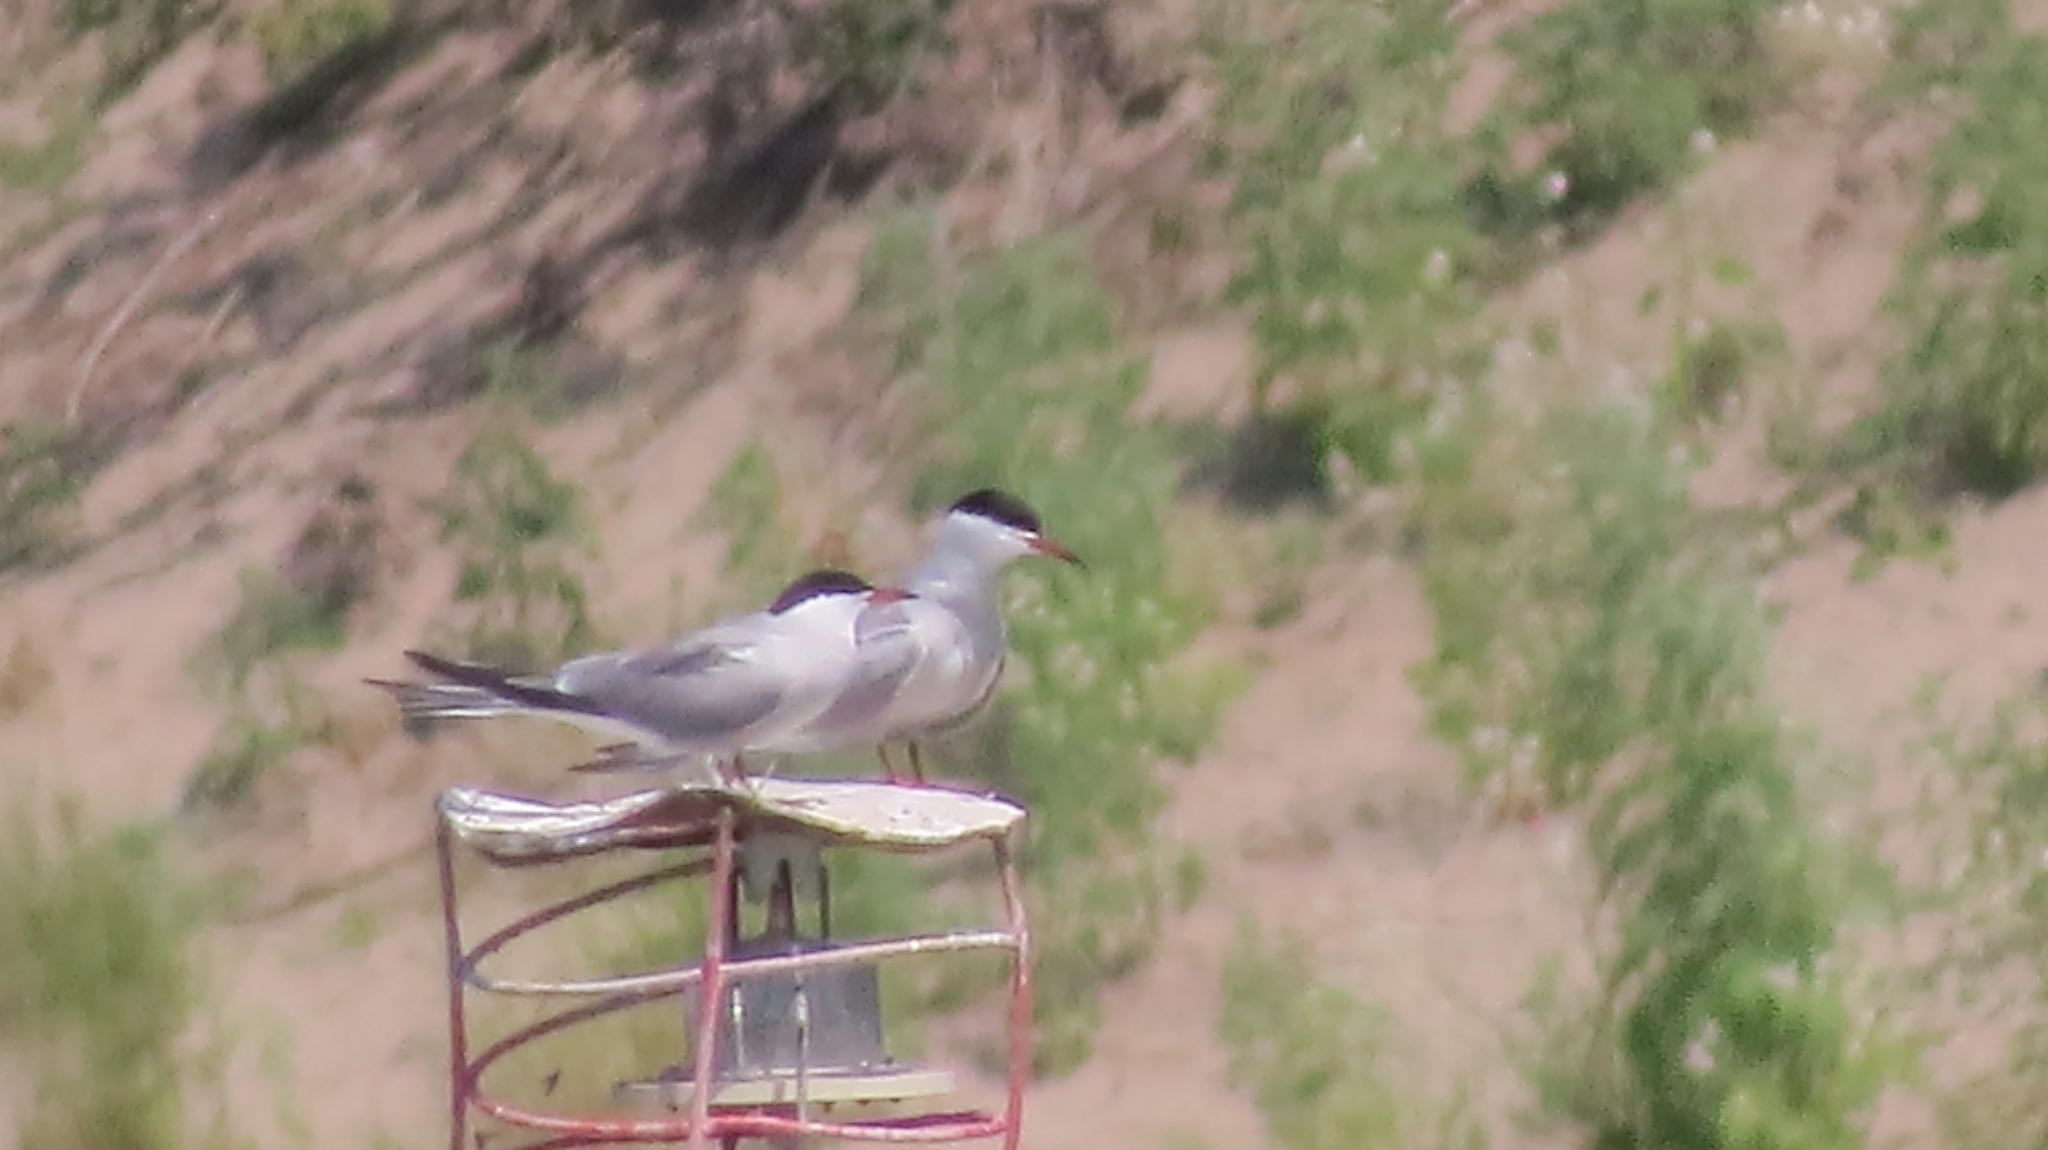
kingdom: Animalia
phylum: Chordata
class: Aves
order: Charadriiformes
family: Laridae
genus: Sterna
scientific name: Sterna hirundo
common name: Common tern
